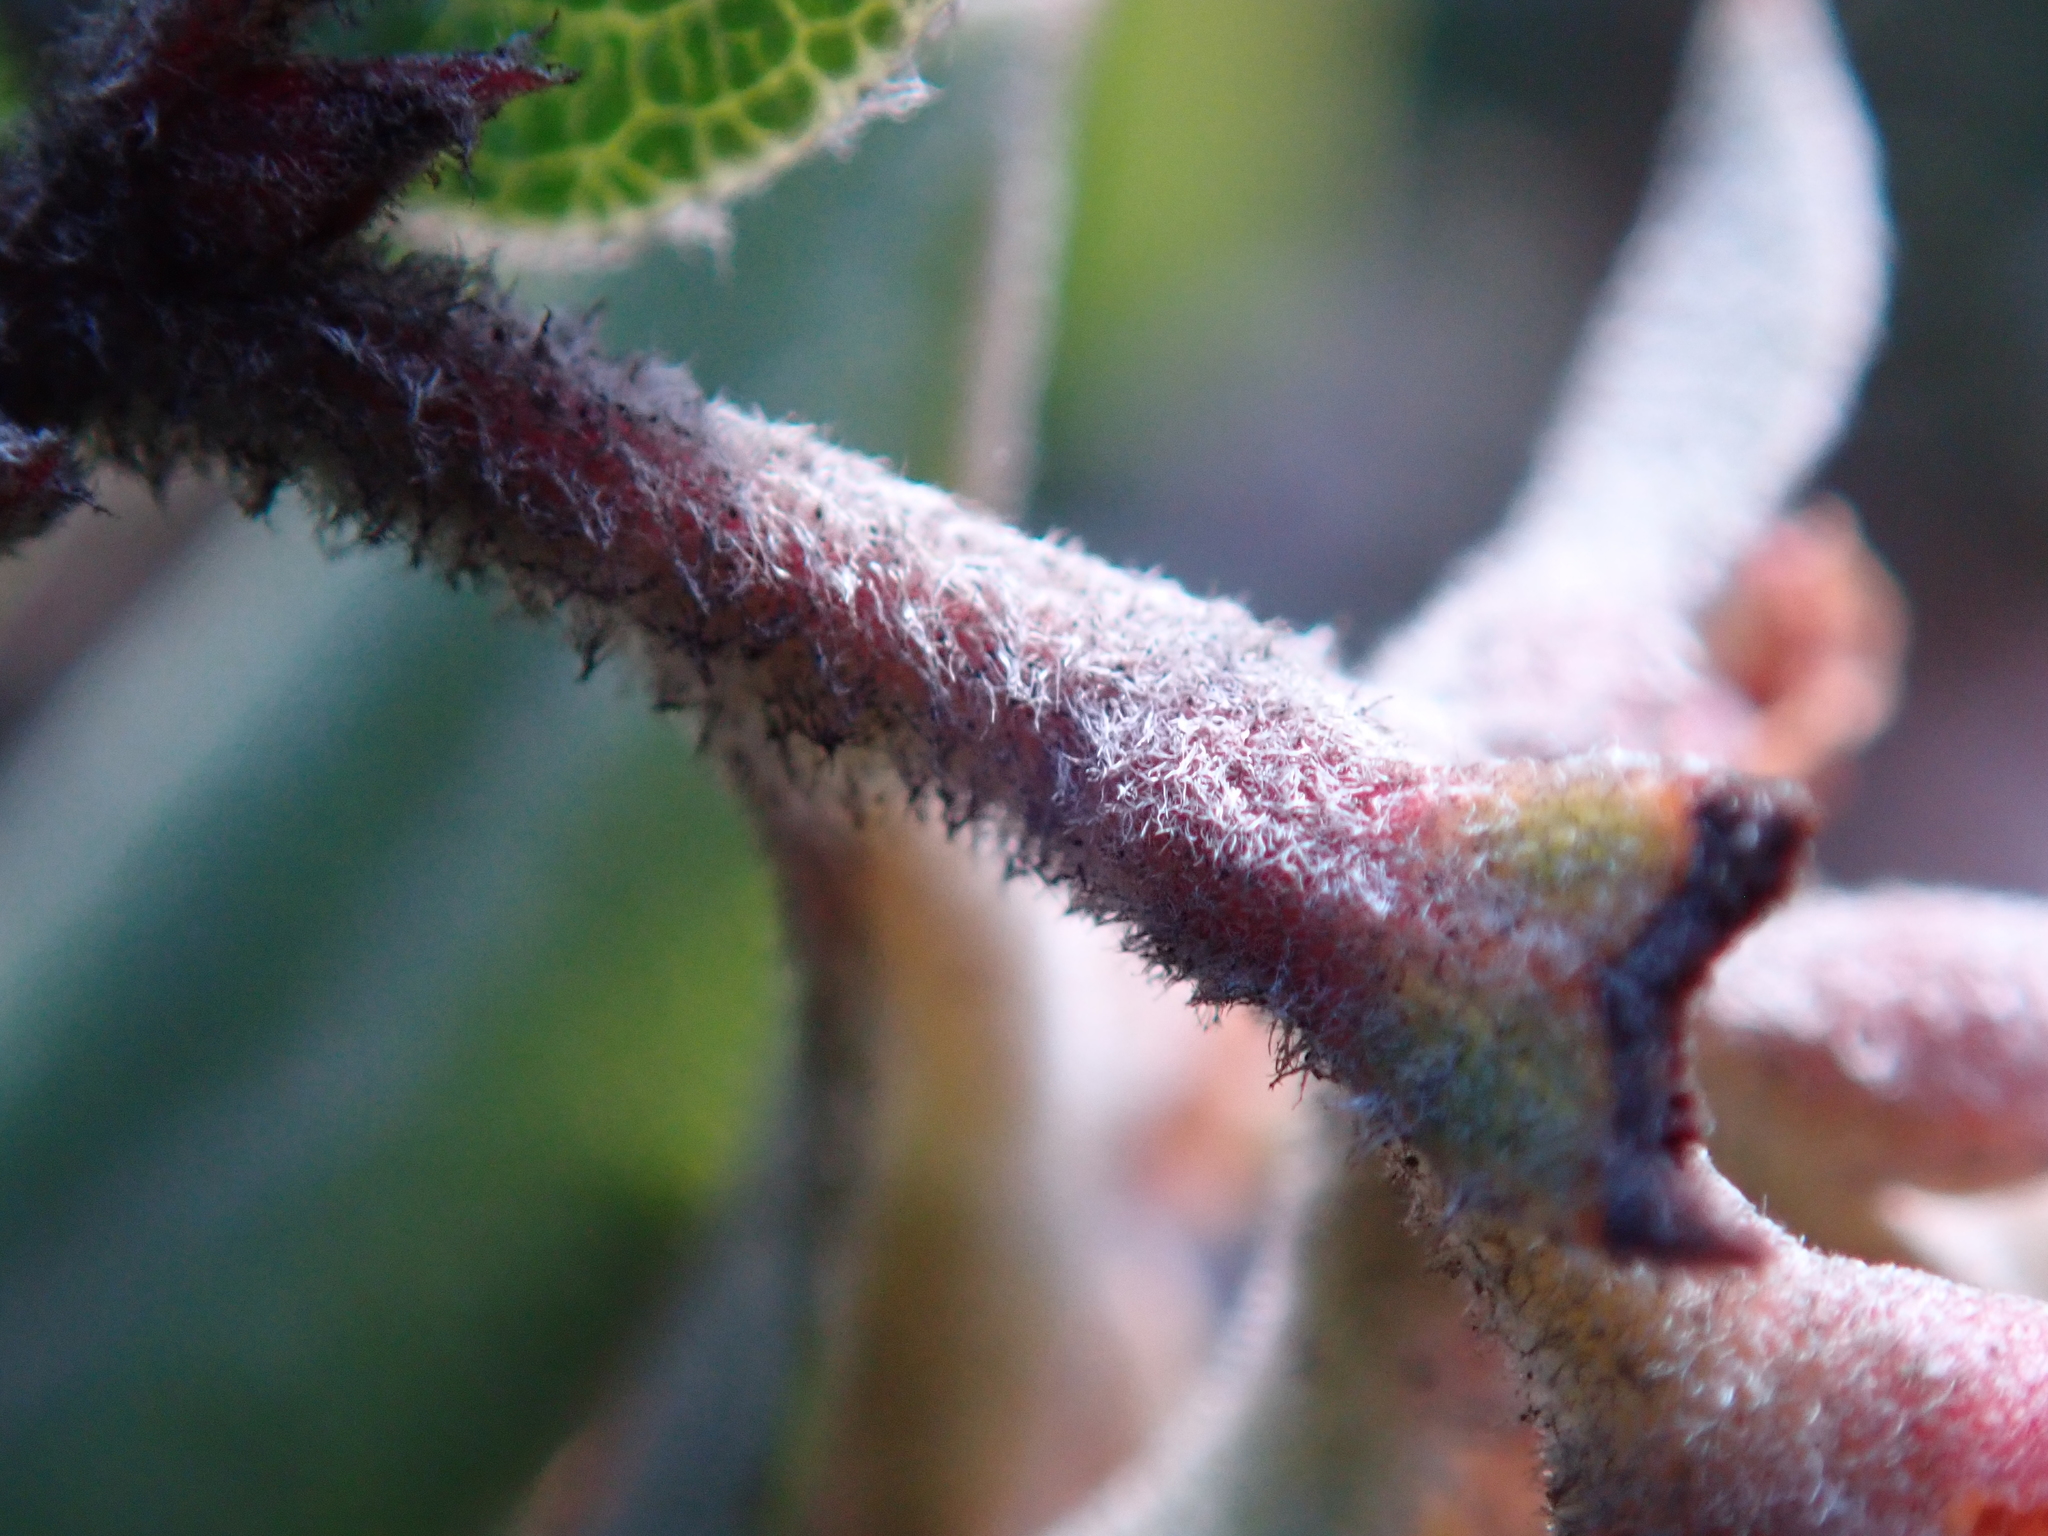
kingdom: Plantae
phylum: Tracheophyta
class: Magnoliopsida
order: Ericales
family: Ericaceae
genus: Arctostaphylos
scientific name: Arctostaphylos tomentosa
